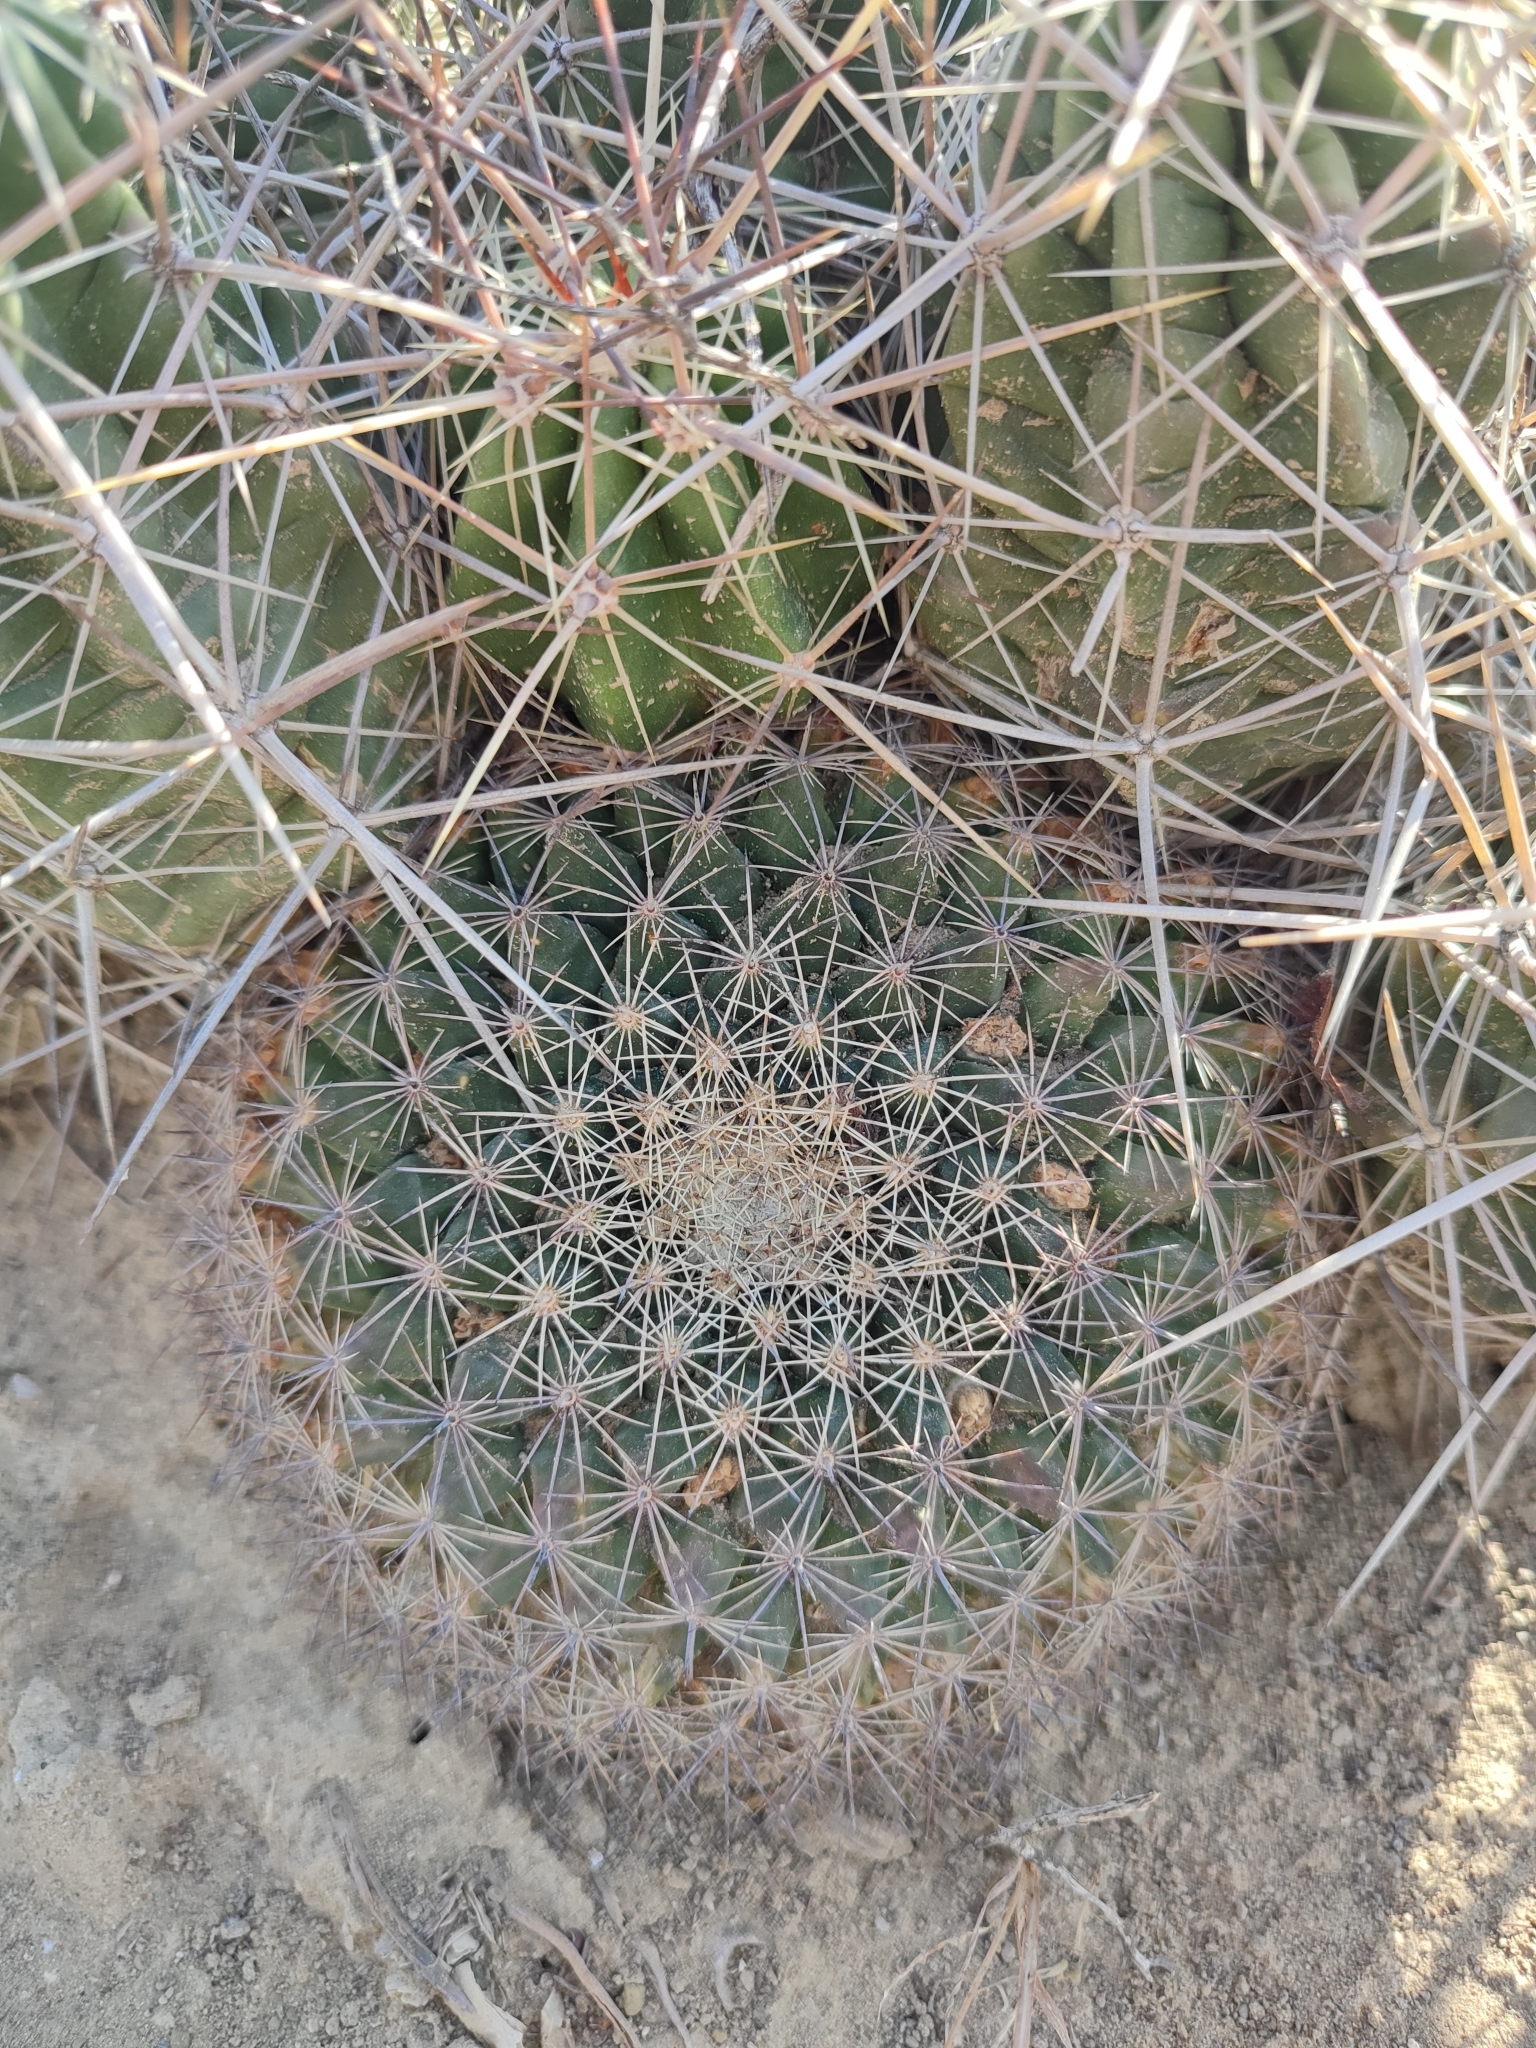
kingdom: Plantae
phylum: Tracheophyta
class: Magnoliopsida
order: Caryophyllales
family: Cactaceae
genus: Mammillaria
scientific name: Mammillaria heyderi
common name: Little nipple cactus
